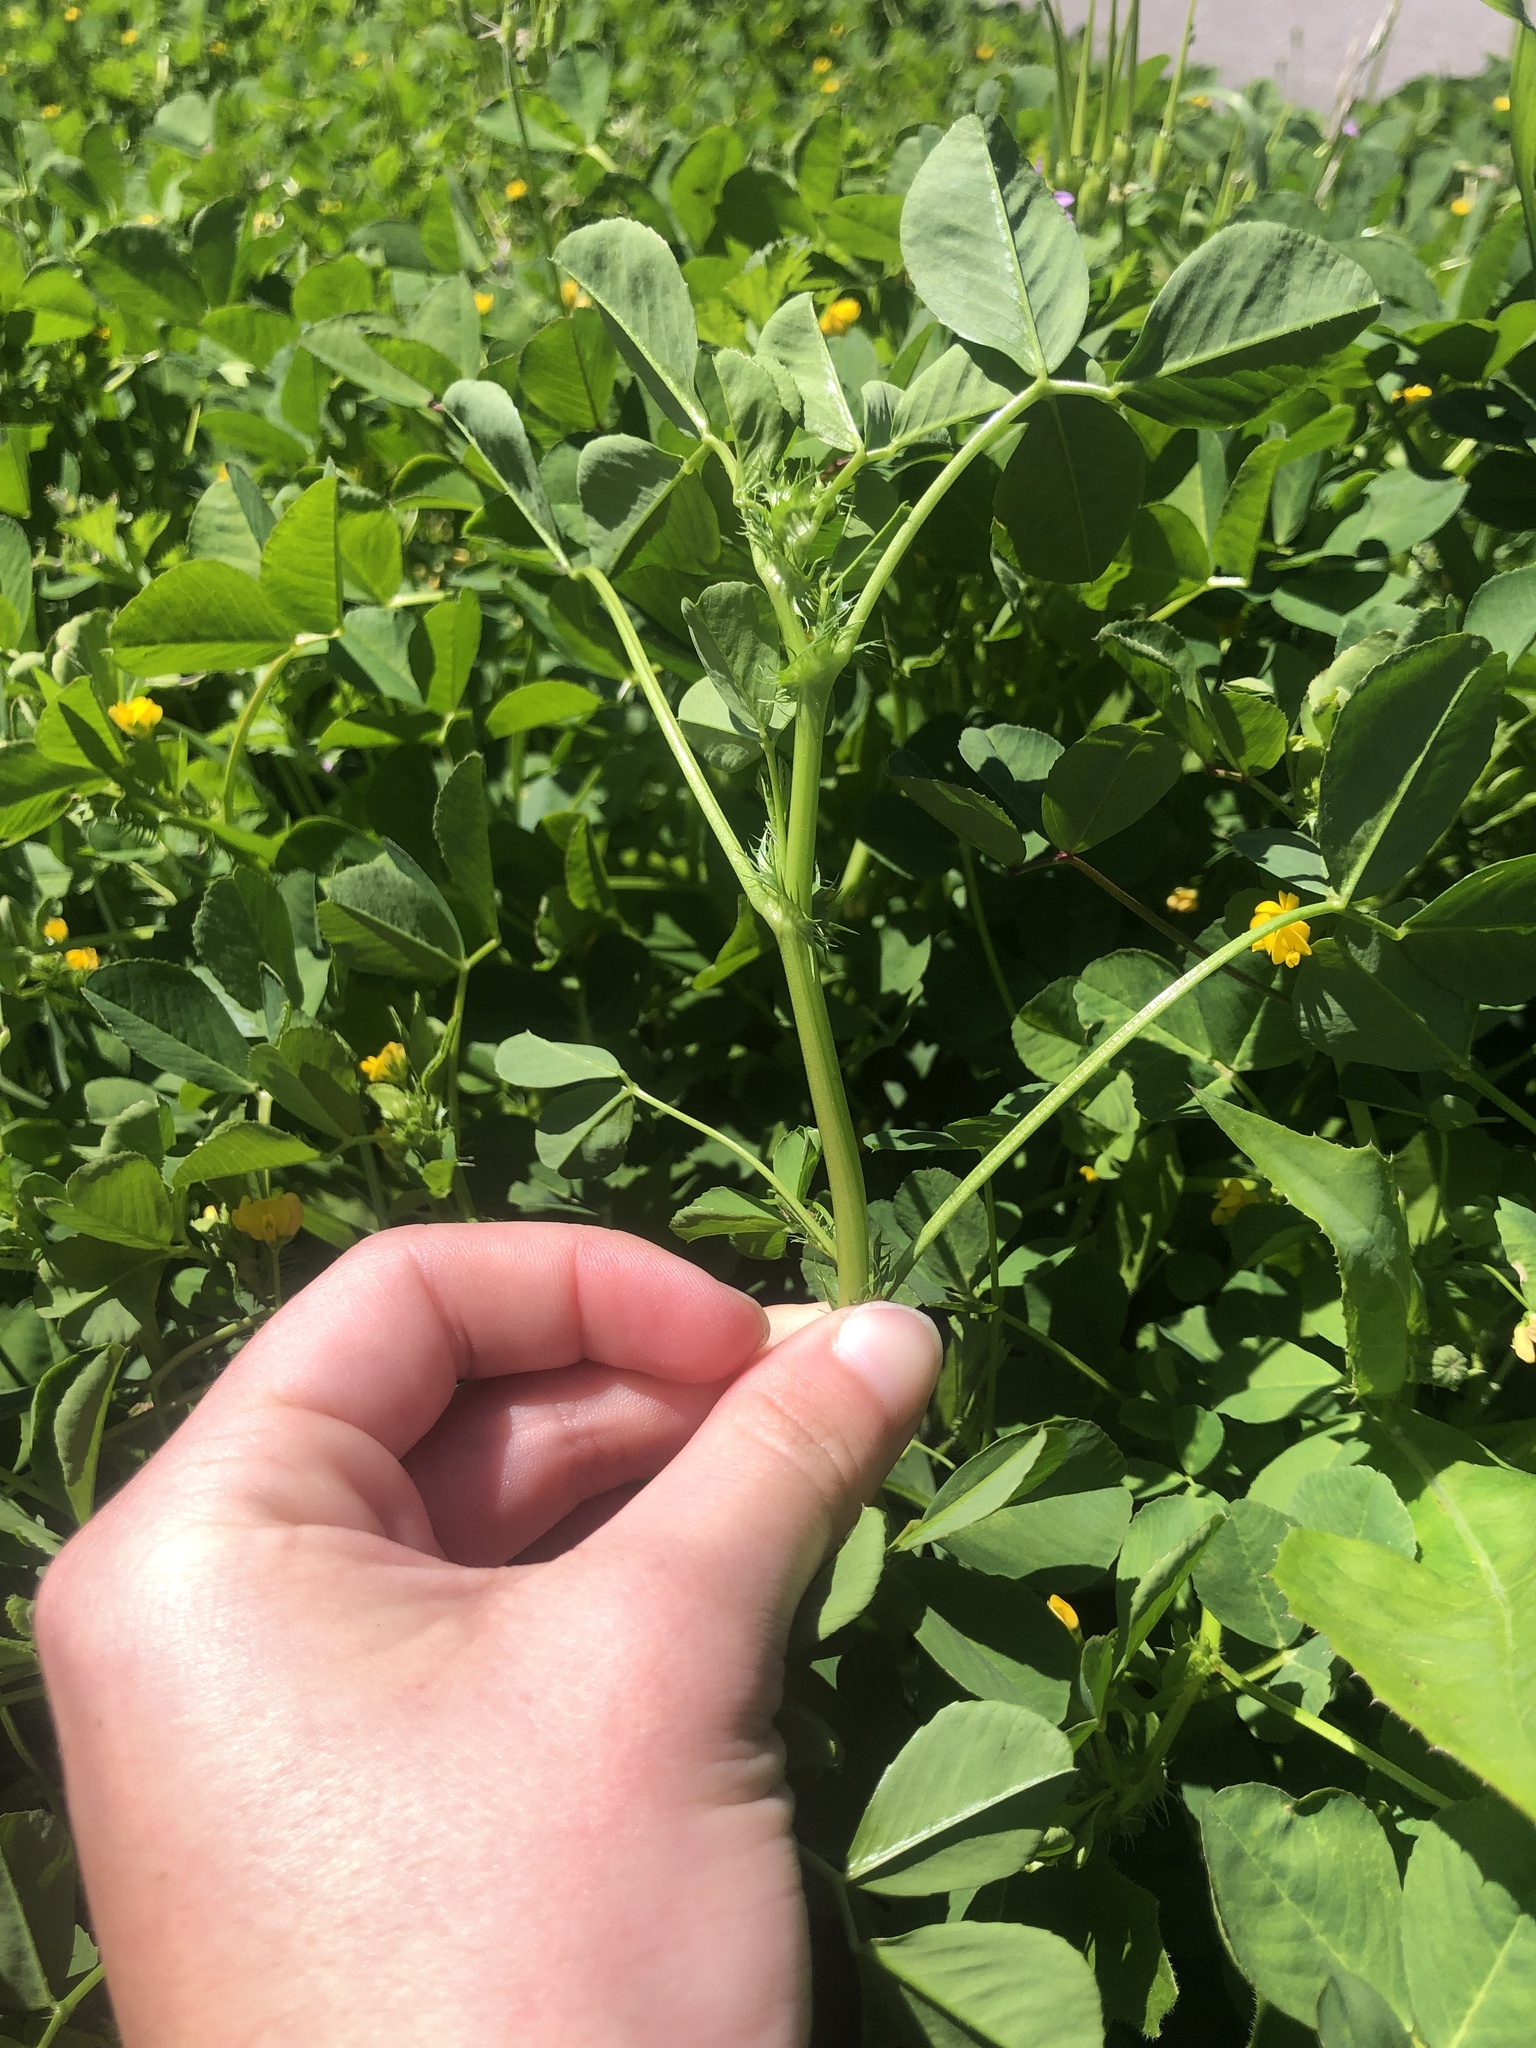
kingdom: Plantae
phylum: Tracheophyta
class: Magnoliopsida
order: Fabales
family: Fabaceae
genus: Medicago
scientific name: Medicago polymorpha
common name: Burclover
